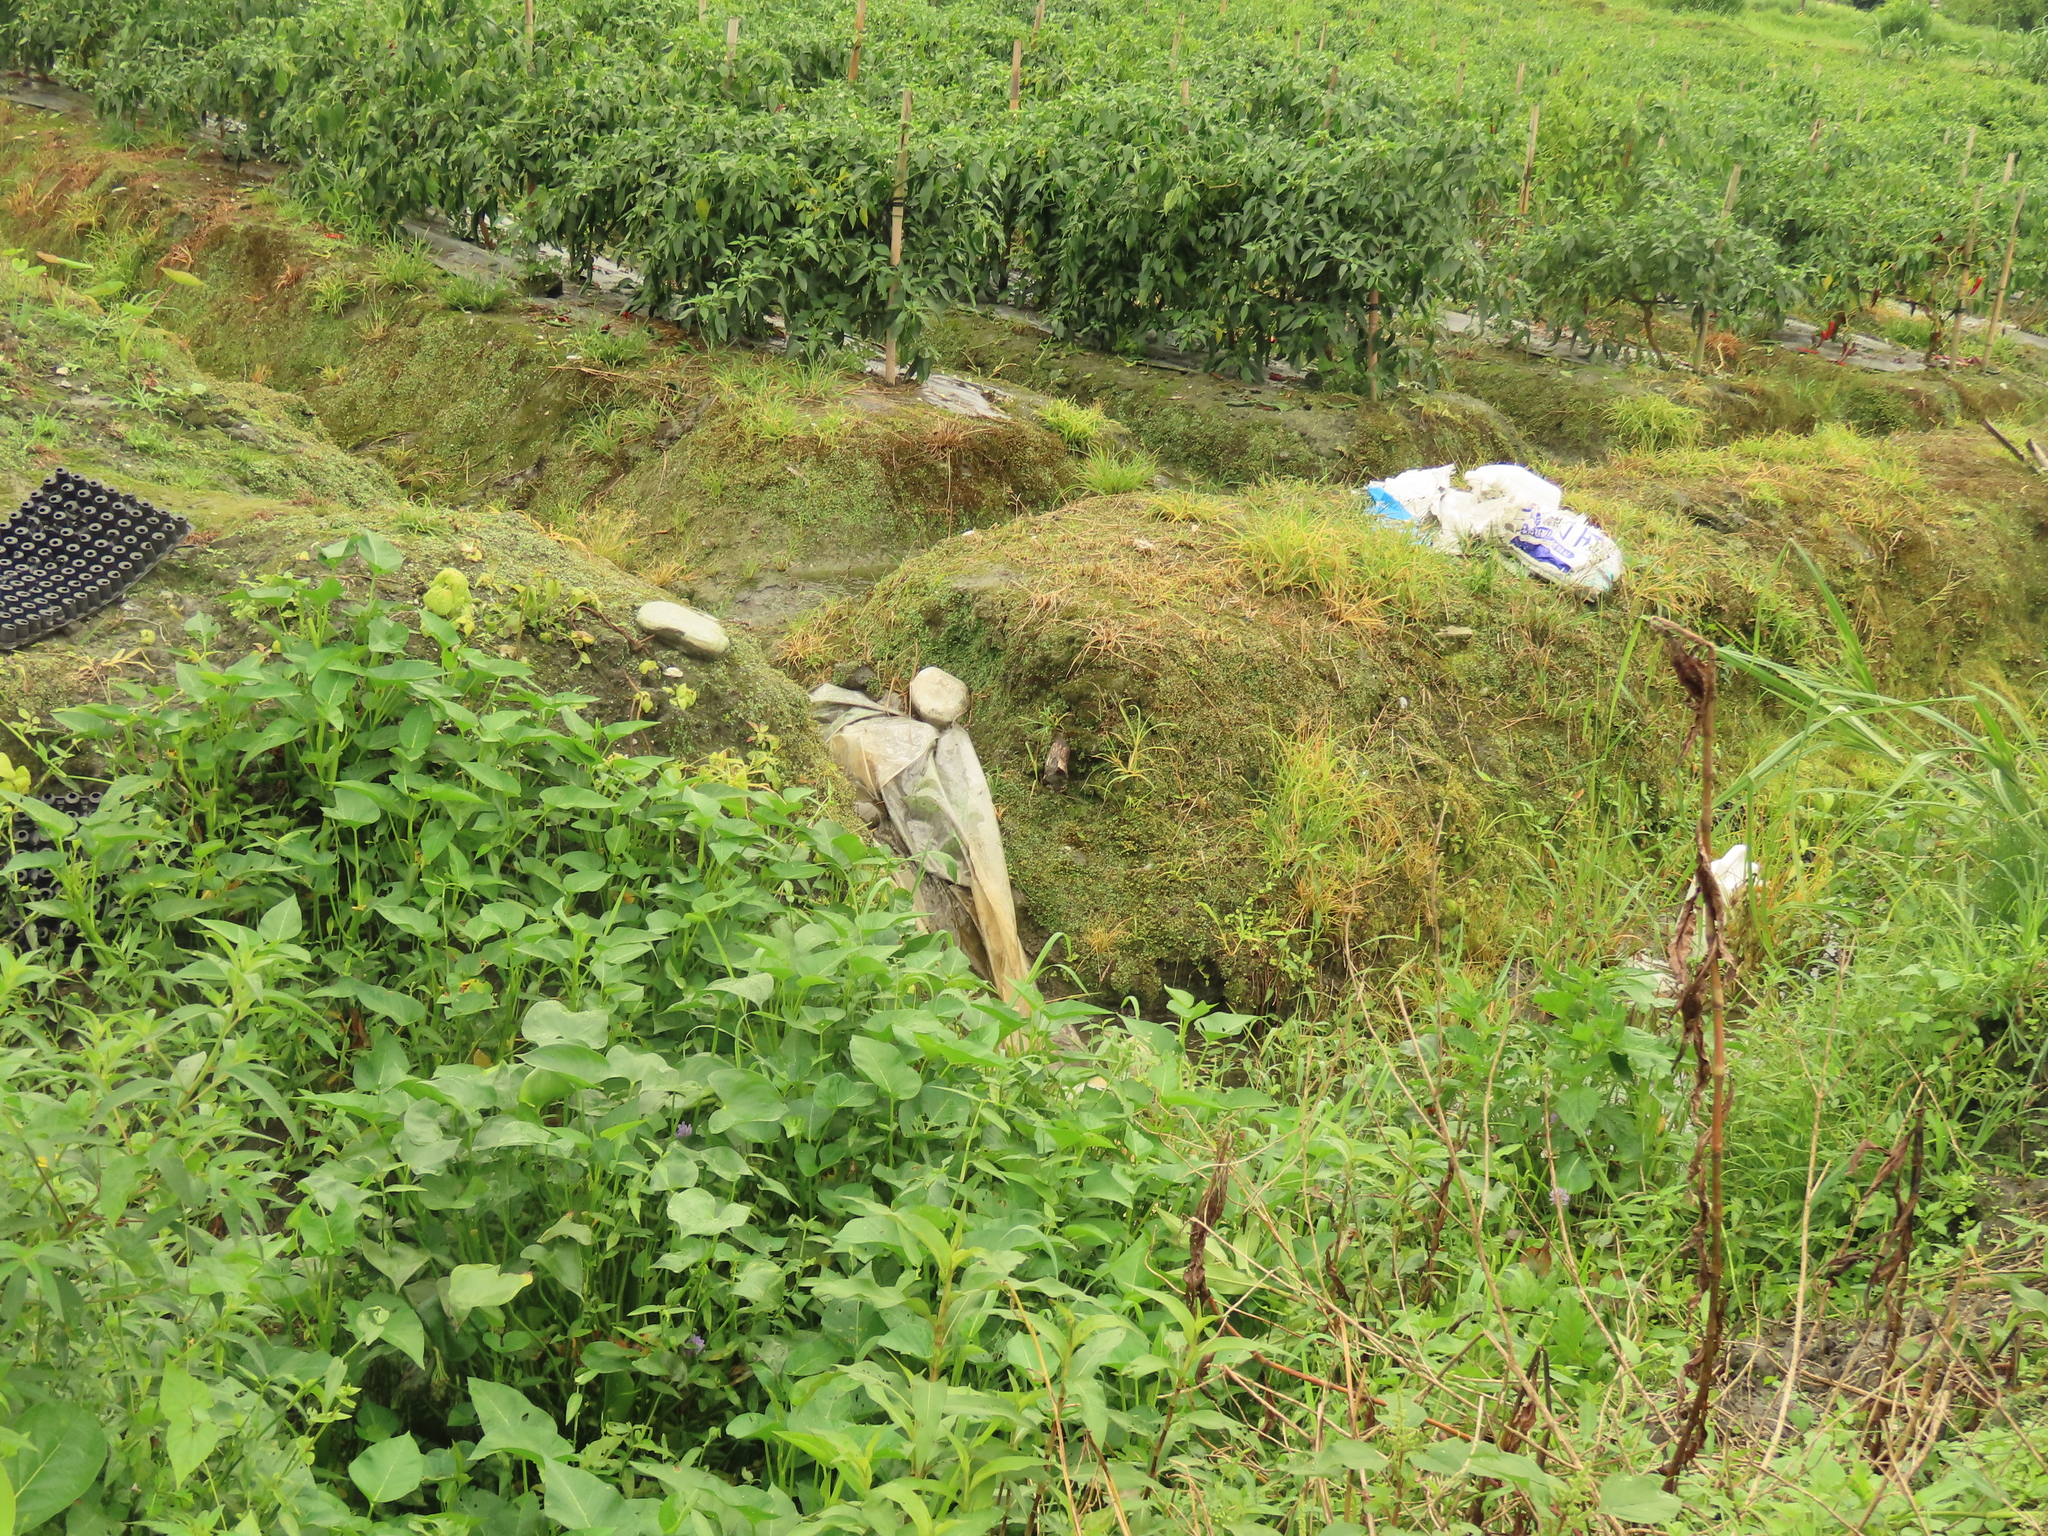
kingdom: Plantae
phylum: Tracheophyta
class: Liliopsida
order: Commelinales
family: Pontederiaceae
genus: Pontederia
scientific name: Pontederia vaginalis
